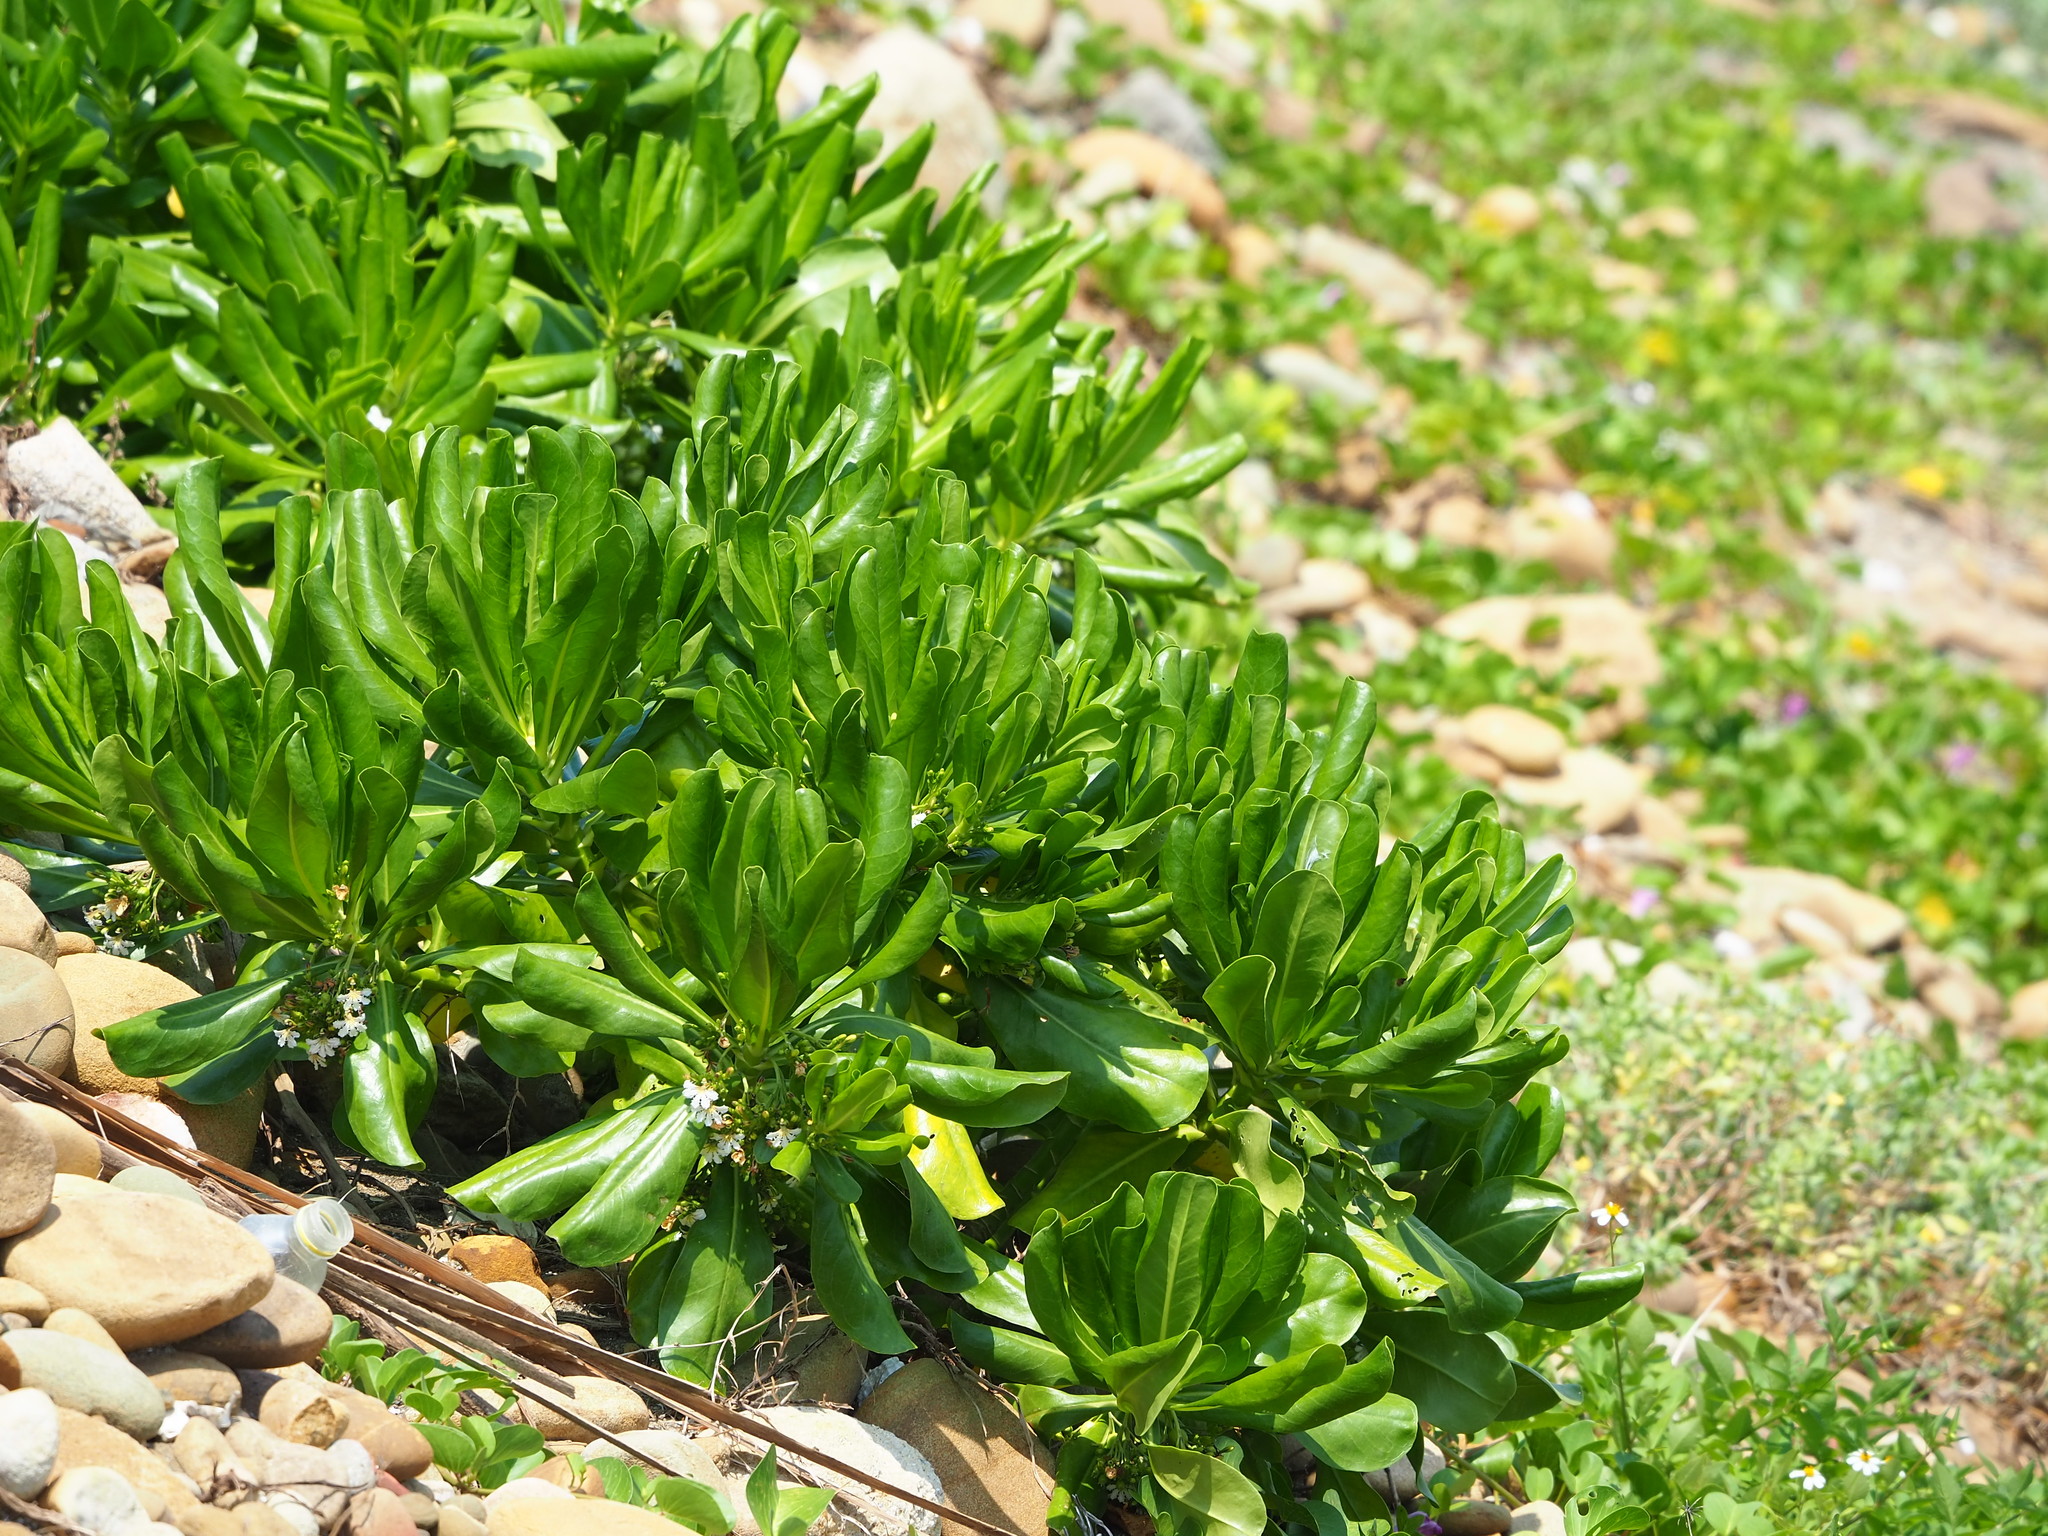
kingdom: Plantae
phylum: Tracheophyta
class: Magnoliopsida
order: Asterales
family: Goodeniaceae
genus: Scaevola
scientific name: Scaevola taccada
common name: Sea lettucetree
